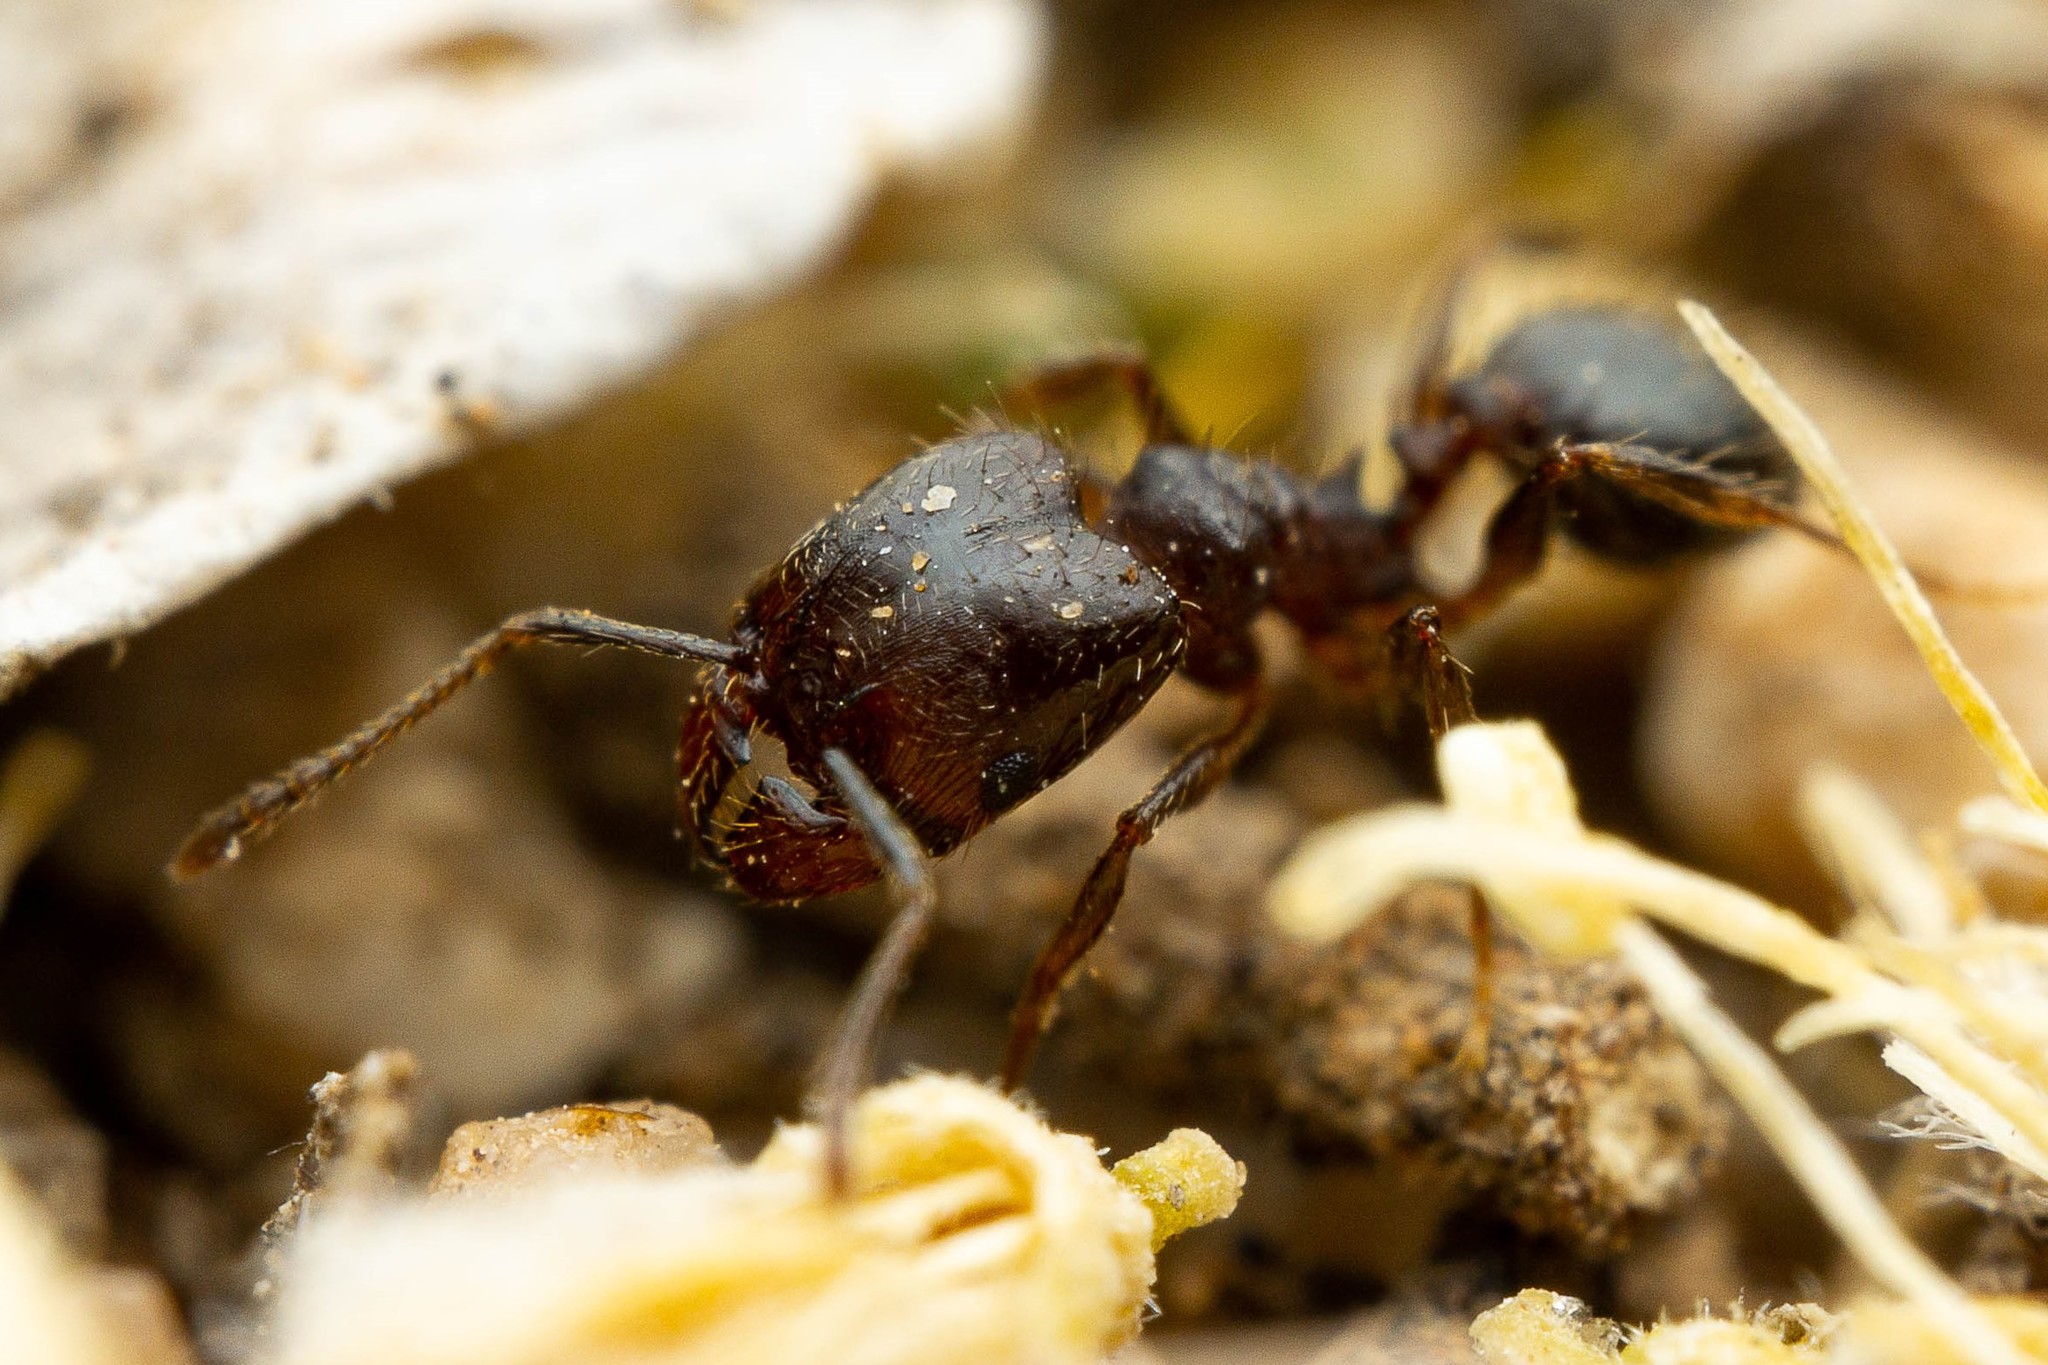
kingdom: Animalia
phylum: Arthropoda
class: Insecta
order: Hymenoptera
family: Formicidae
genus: Pheidole
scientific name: Pheidole sciophila
